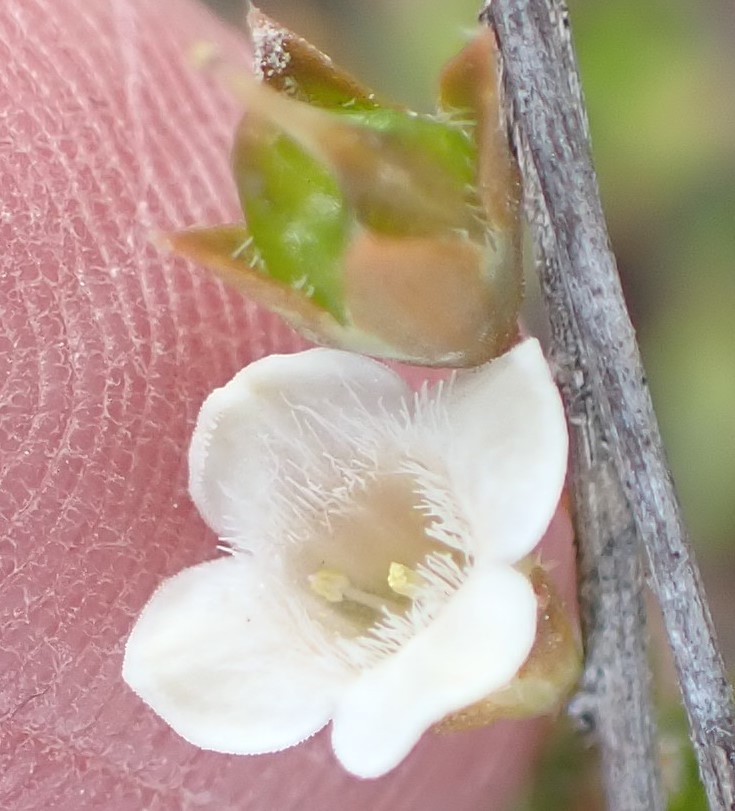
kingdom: Plantae
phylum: Tracheophyta
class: Magnoliopsida
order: Gentianales
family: Loganiaceae
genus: Mitrasacme
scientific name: Mitrasacme pilosa
